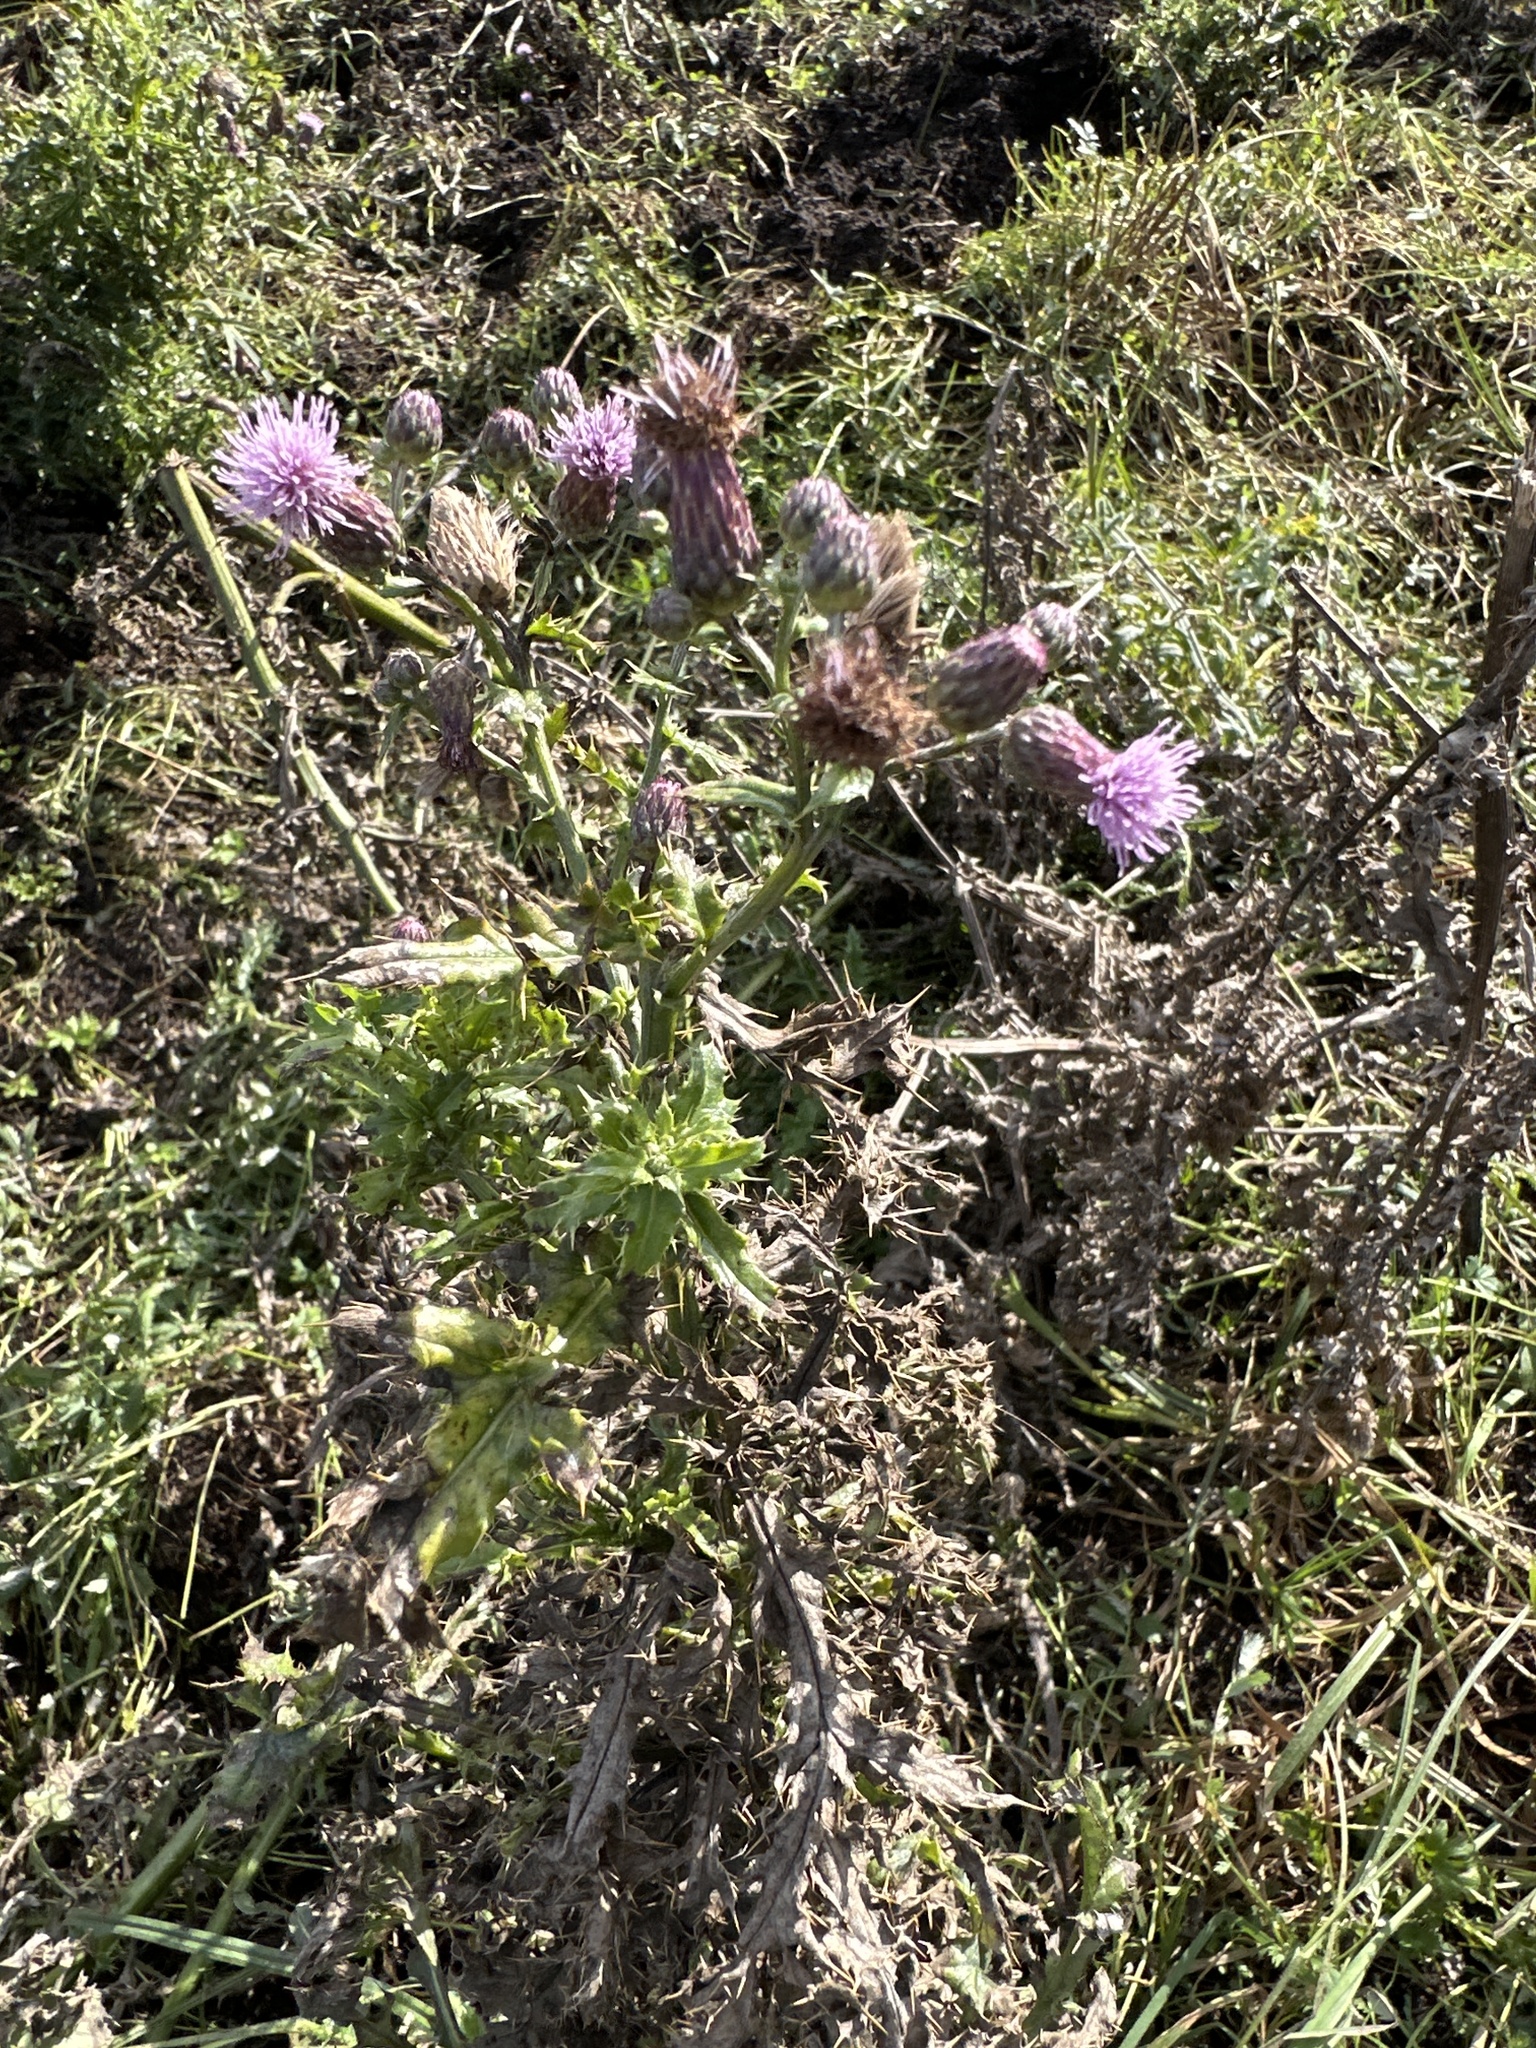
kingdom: Plantae
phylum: Tracheophyta
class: Magnoliopsida
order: Asterales
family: Asteraceae
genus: Cirsium
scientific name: Cirsium arvense
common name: Creeping thistle
